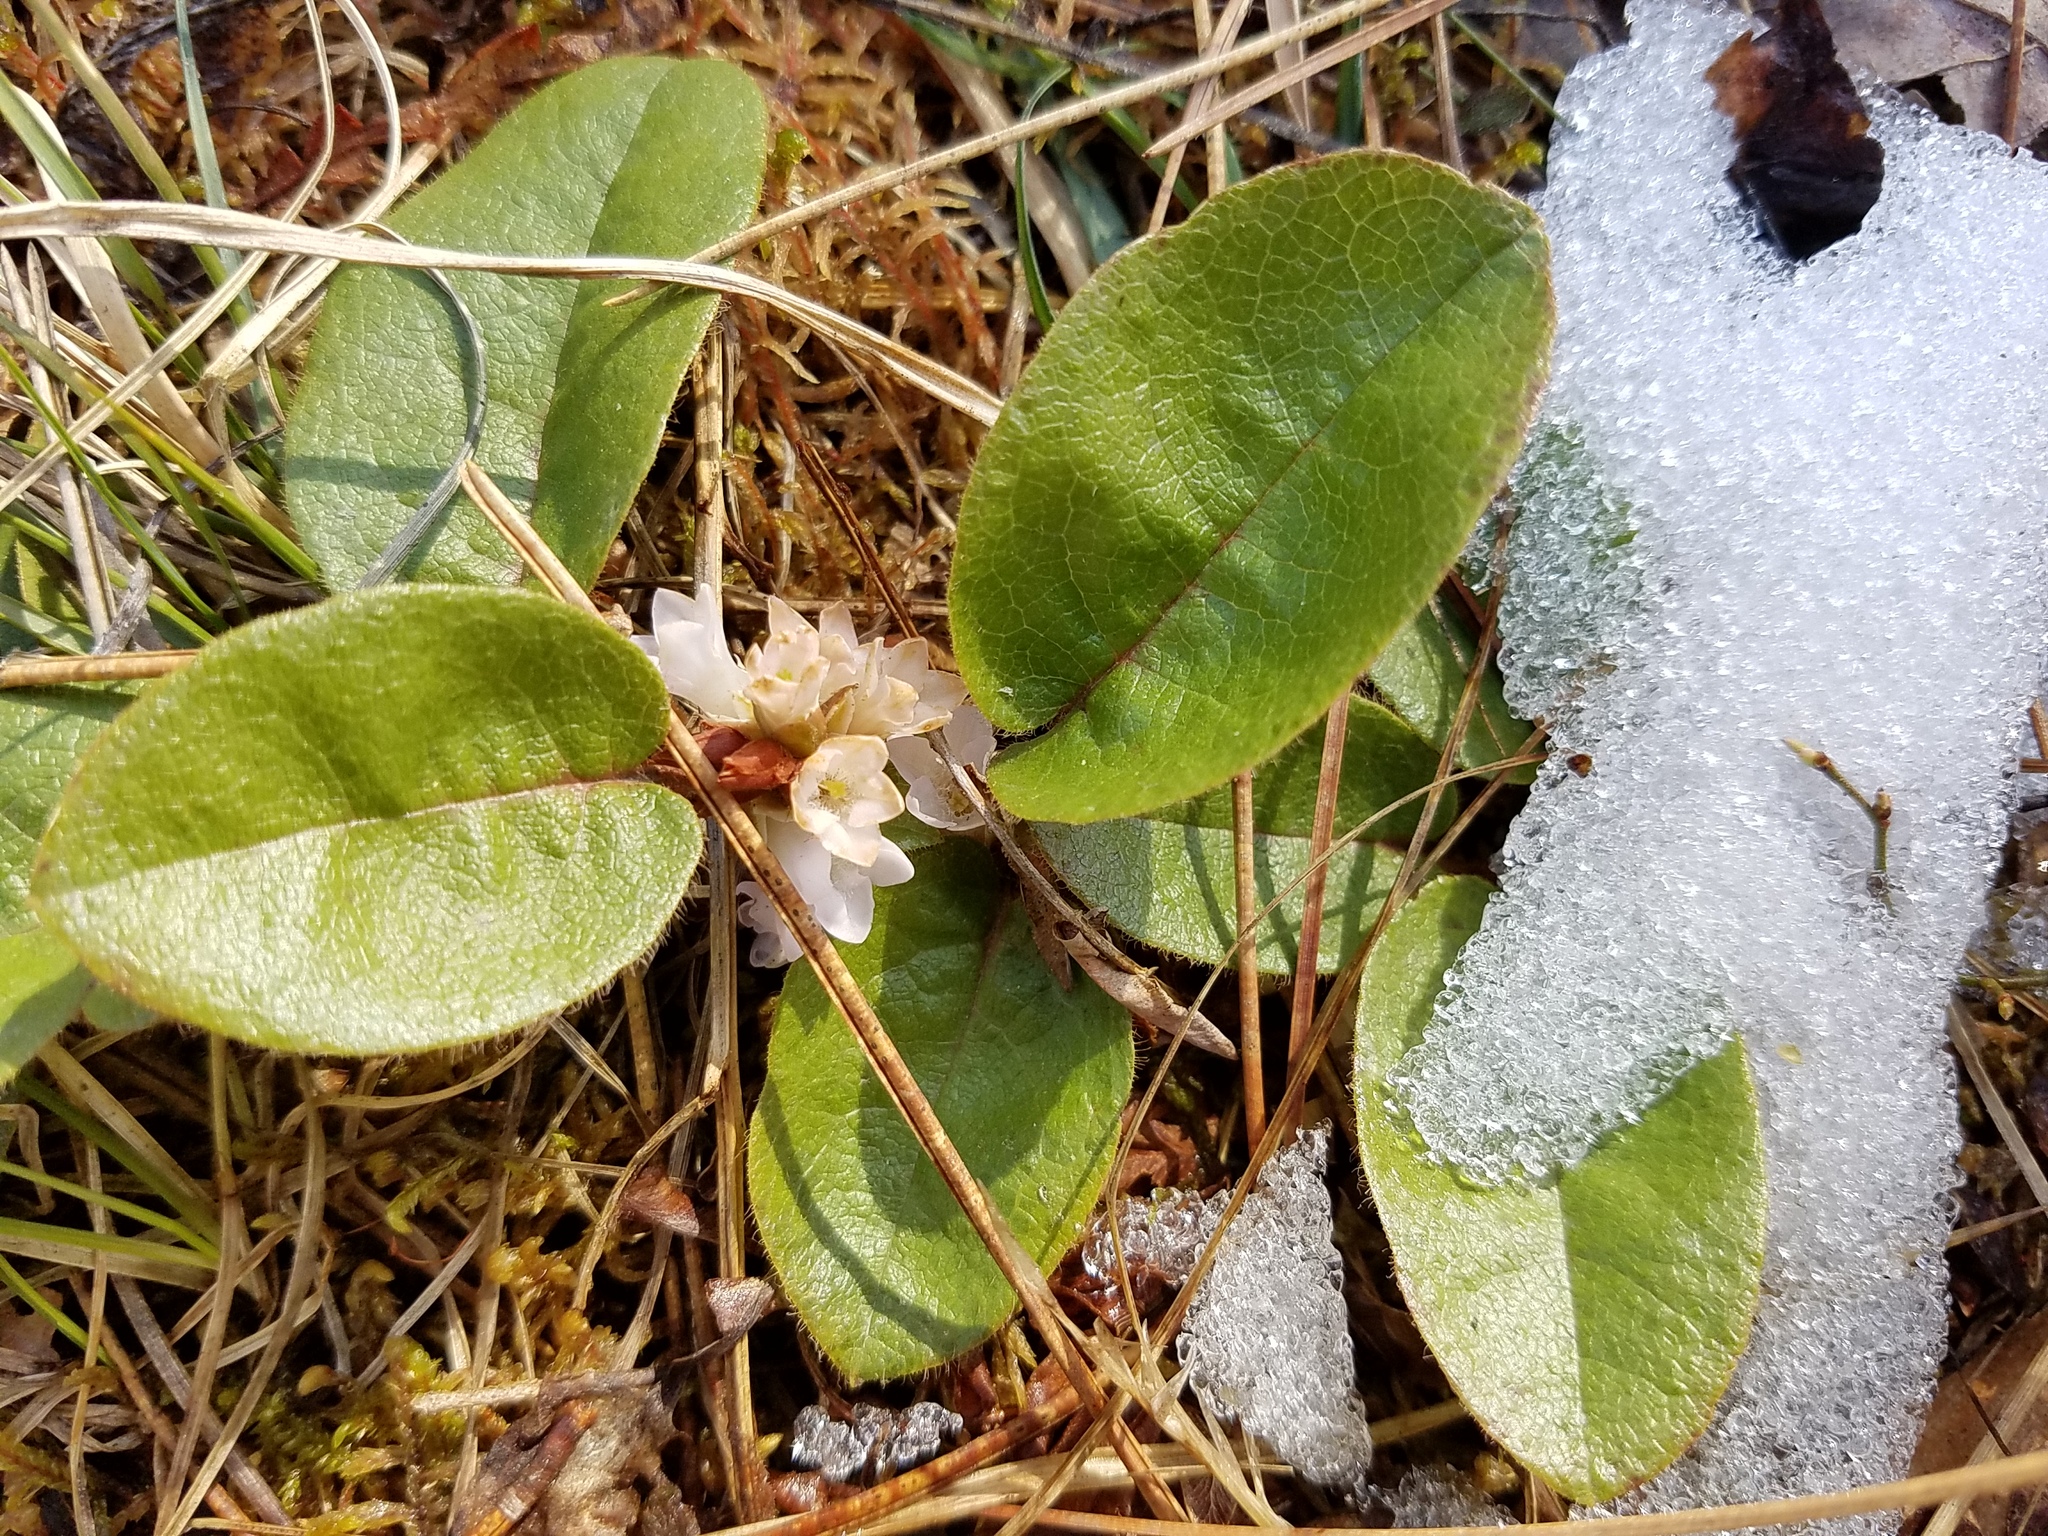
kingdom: Plantae
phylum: Tracheophyta
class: Magnoliopsida
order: Ericales
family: Ericaceae
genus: Epigaea
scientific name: Epigaea repens
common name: Gravelroot
